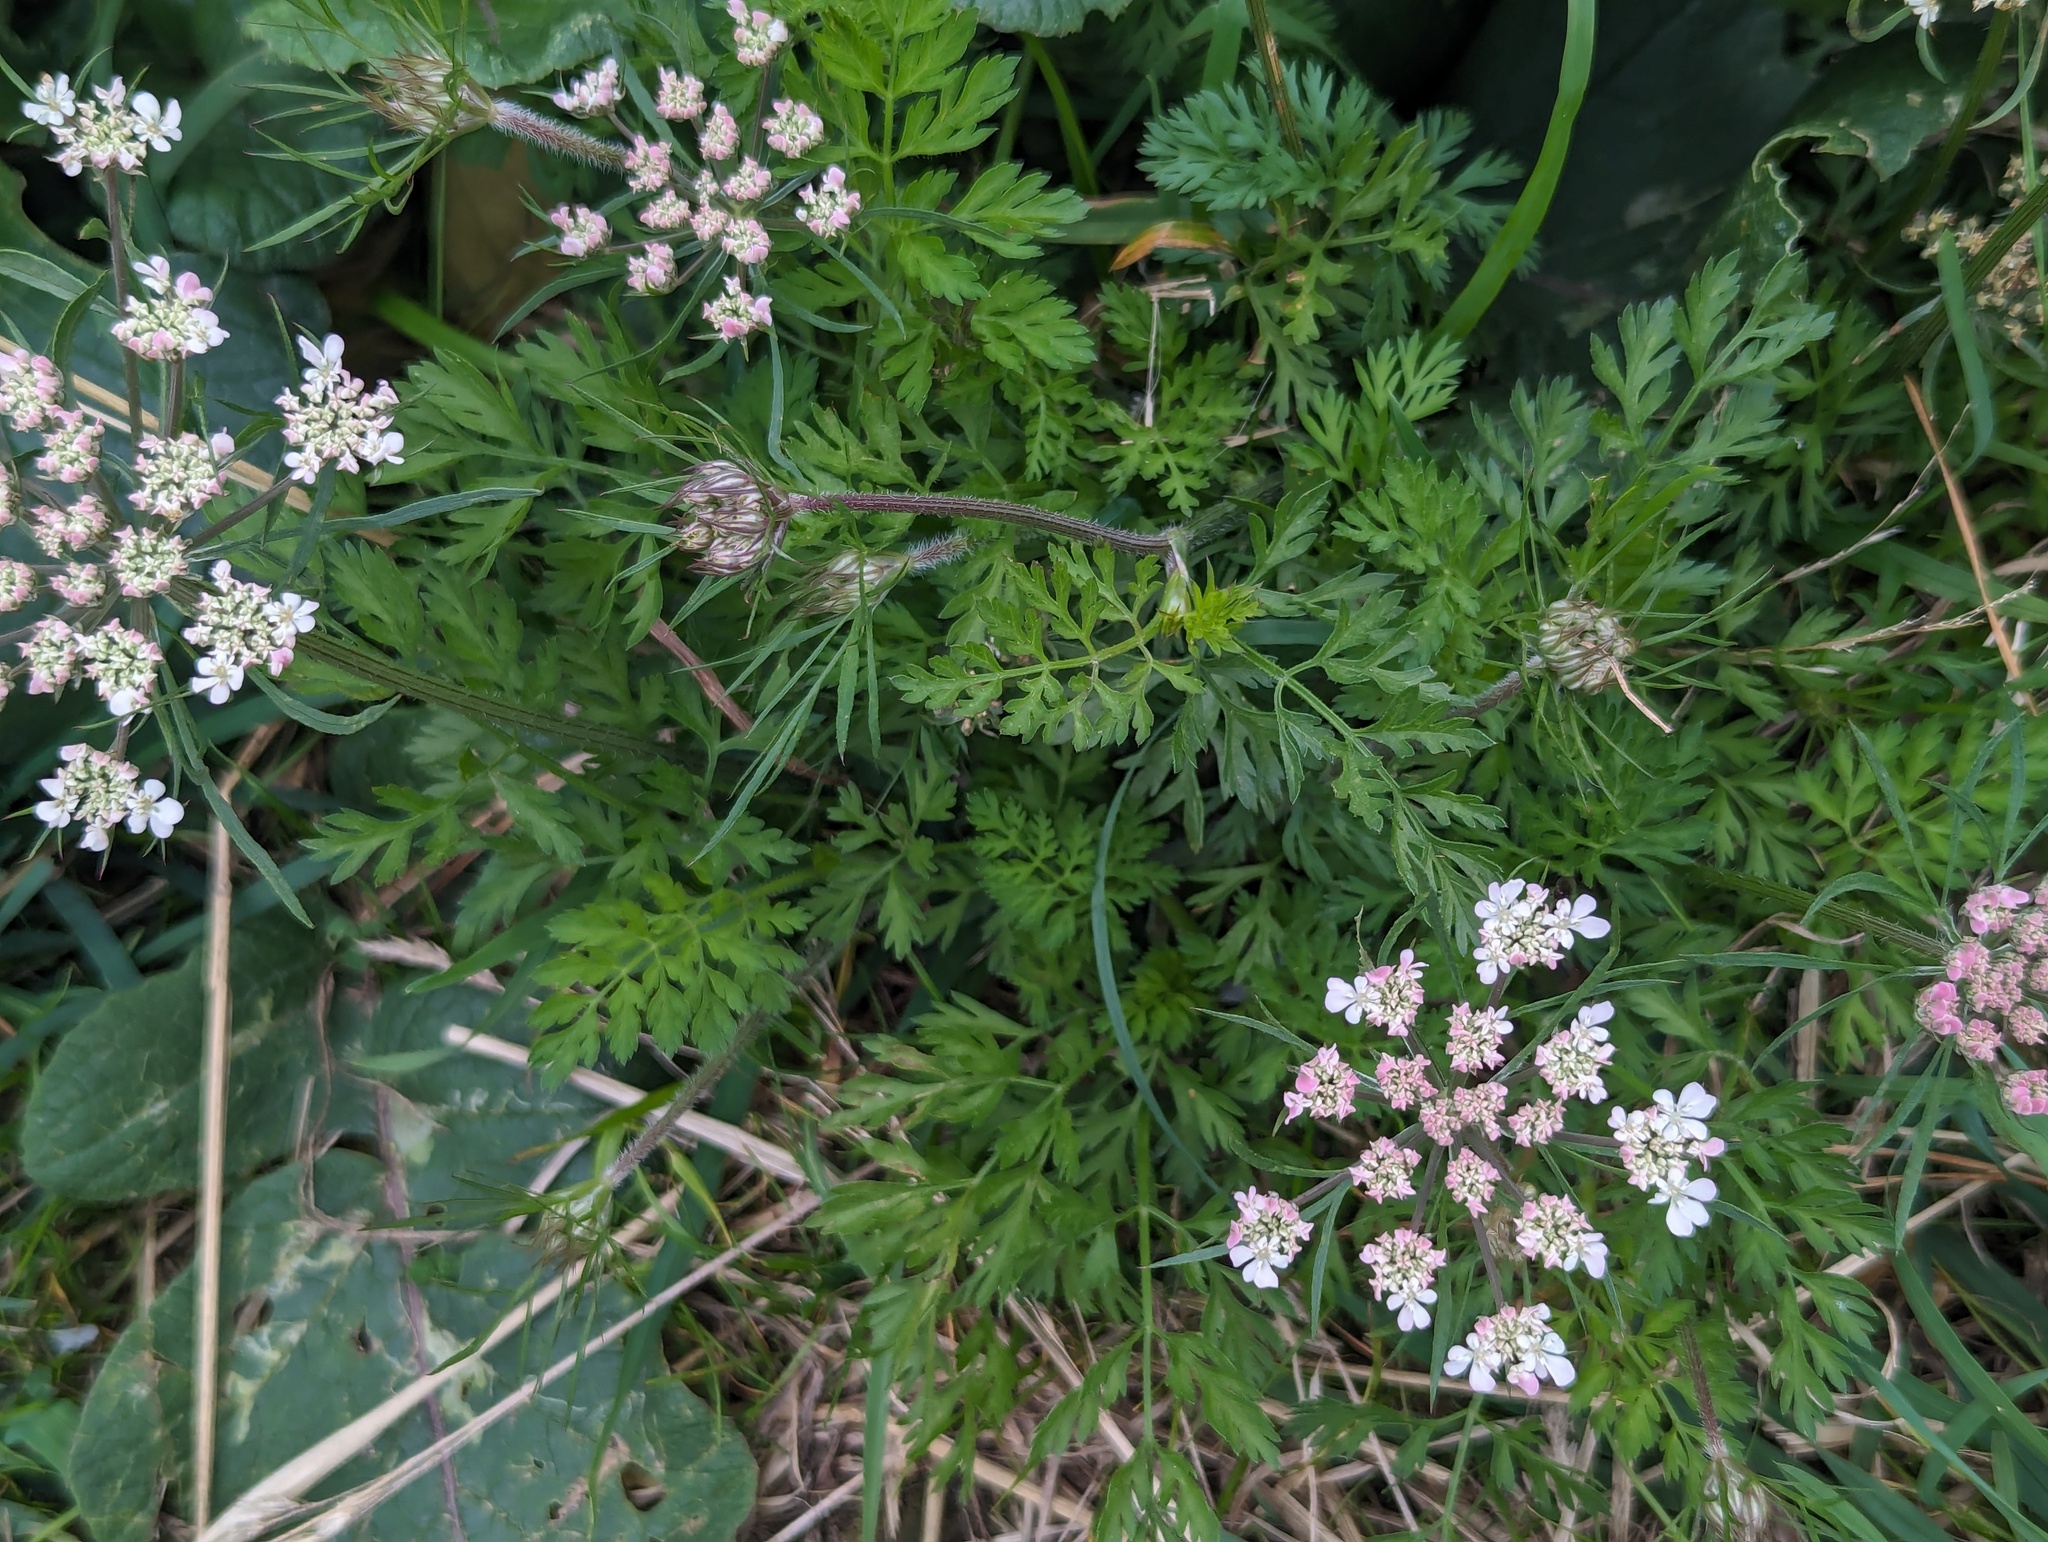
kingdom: Plantae
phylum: Tracheophyta
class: Magnoliopsida
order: Apiales
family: Apiaceae
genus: Daucus
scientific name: Daucus carota
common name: Wild carrot
